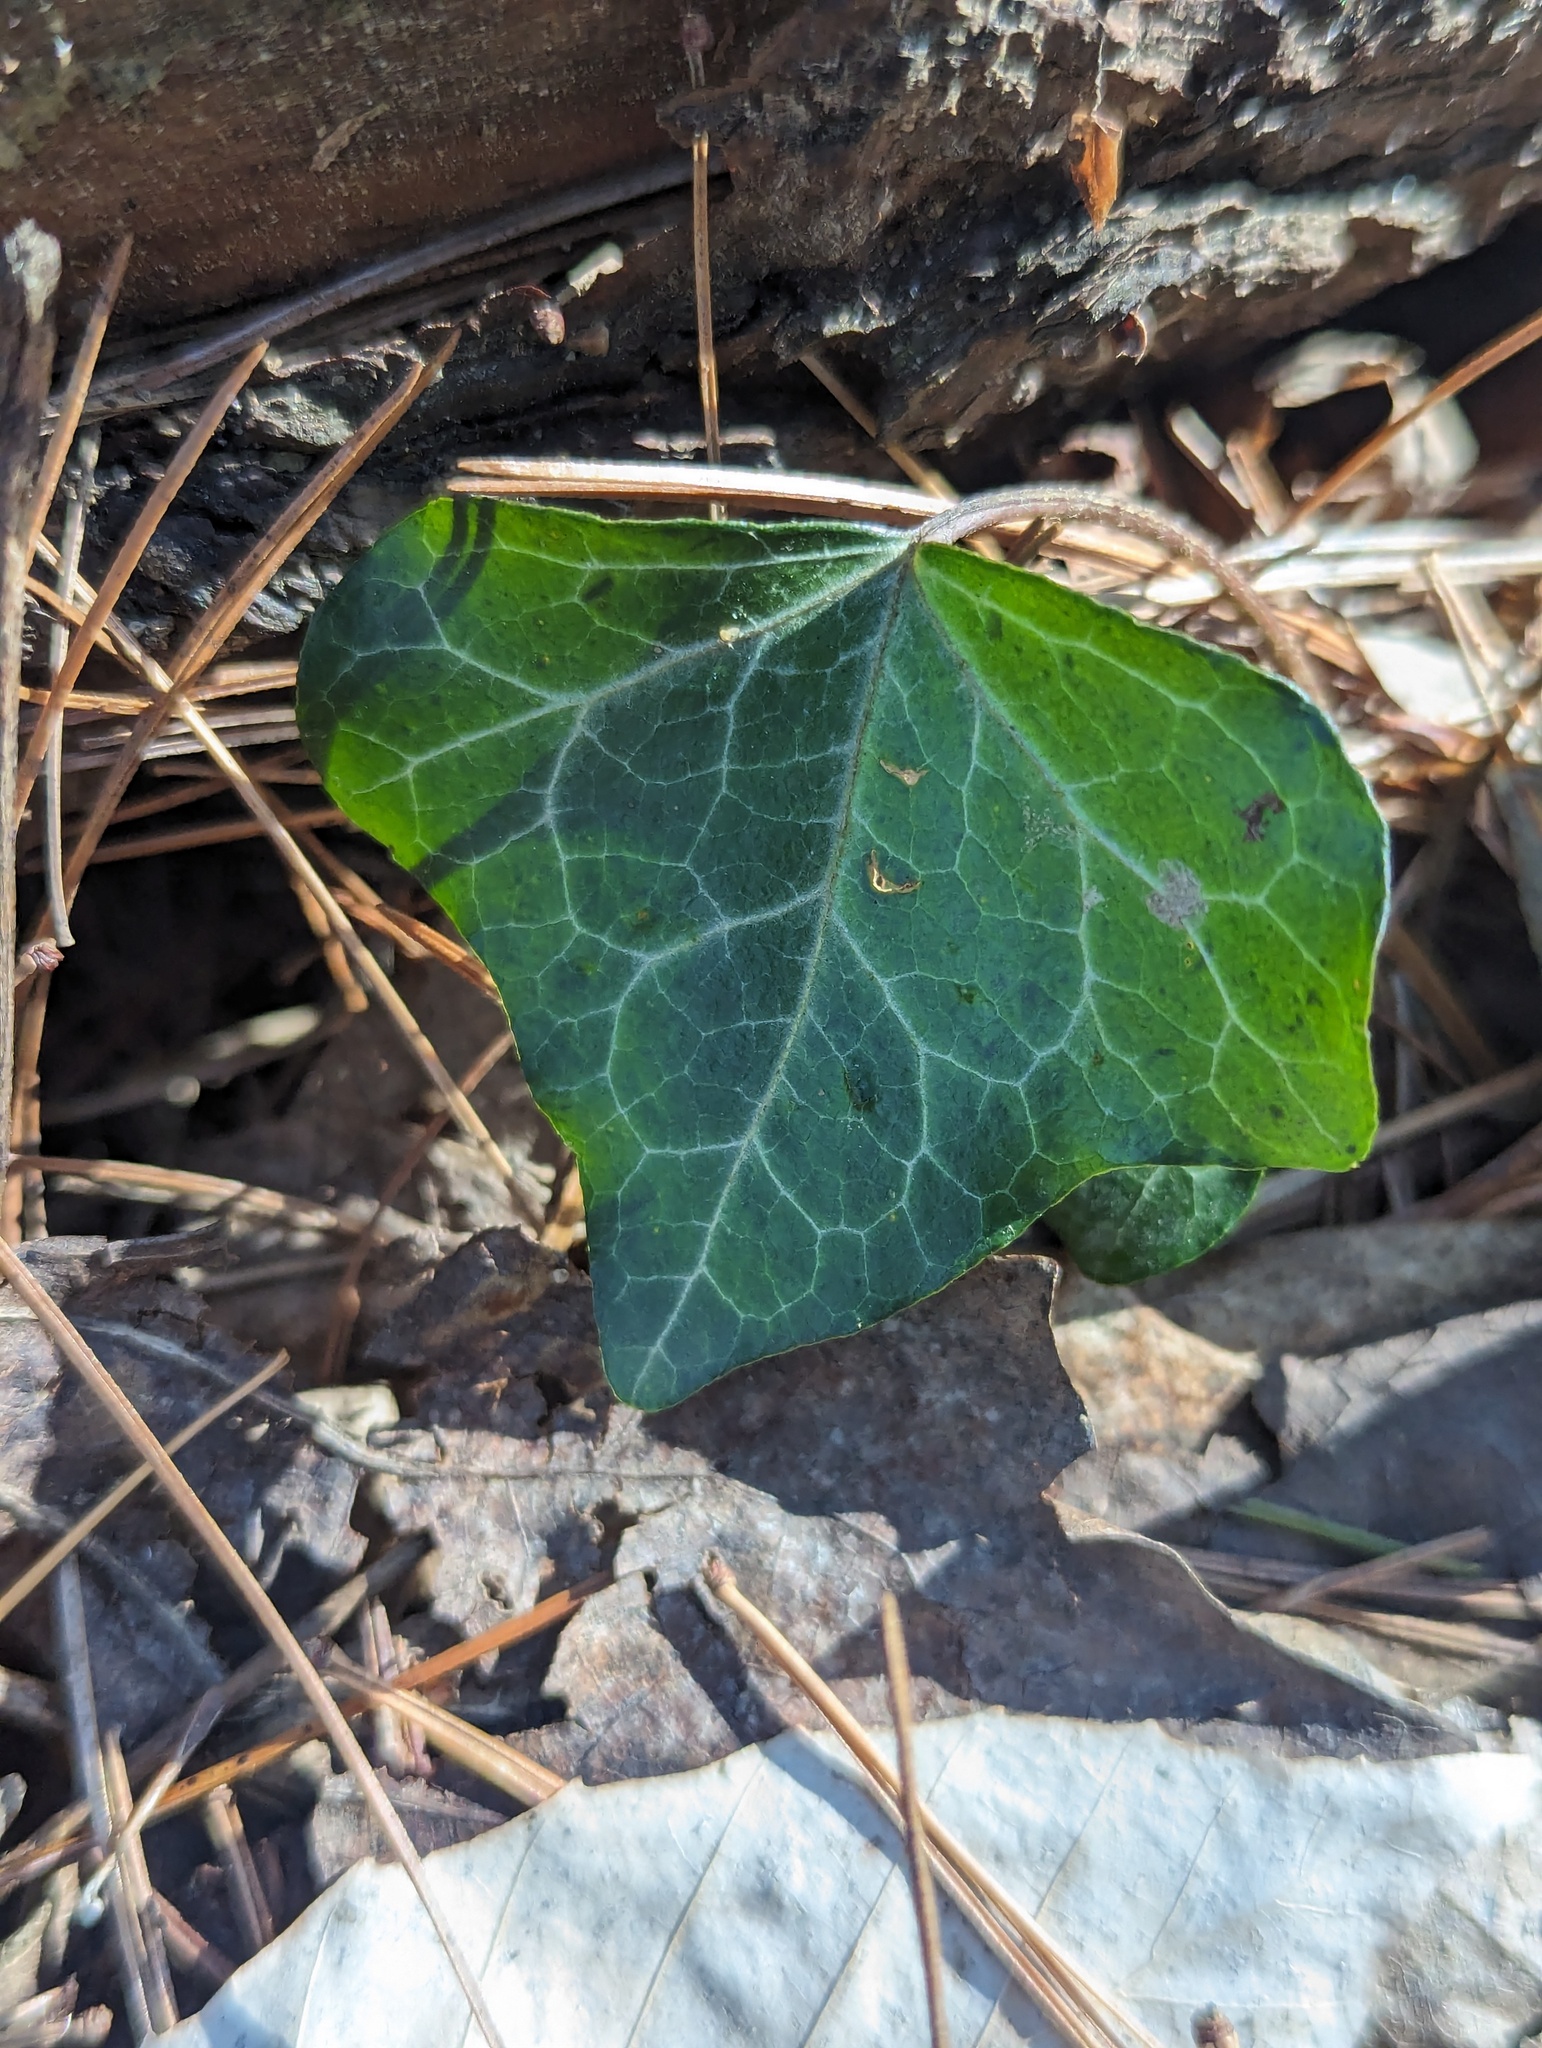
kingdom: Plantae
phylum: Tracheophyta
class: Magnoliopsida
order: Apiales
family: Araliaceae
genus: Hedera
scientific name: Hedera helix
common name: Ivy
